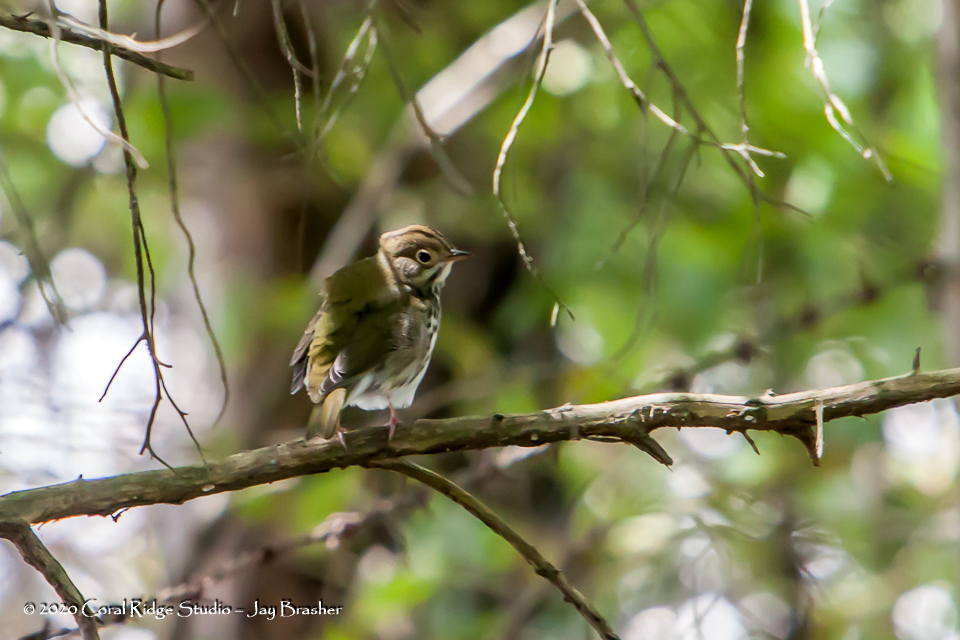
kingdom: Animalia
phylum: Chordata
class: Aves
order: Passeriformes
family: Parulidae
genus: Seiurus
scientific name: Seiurus aurocapilla
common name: Ovenbird
